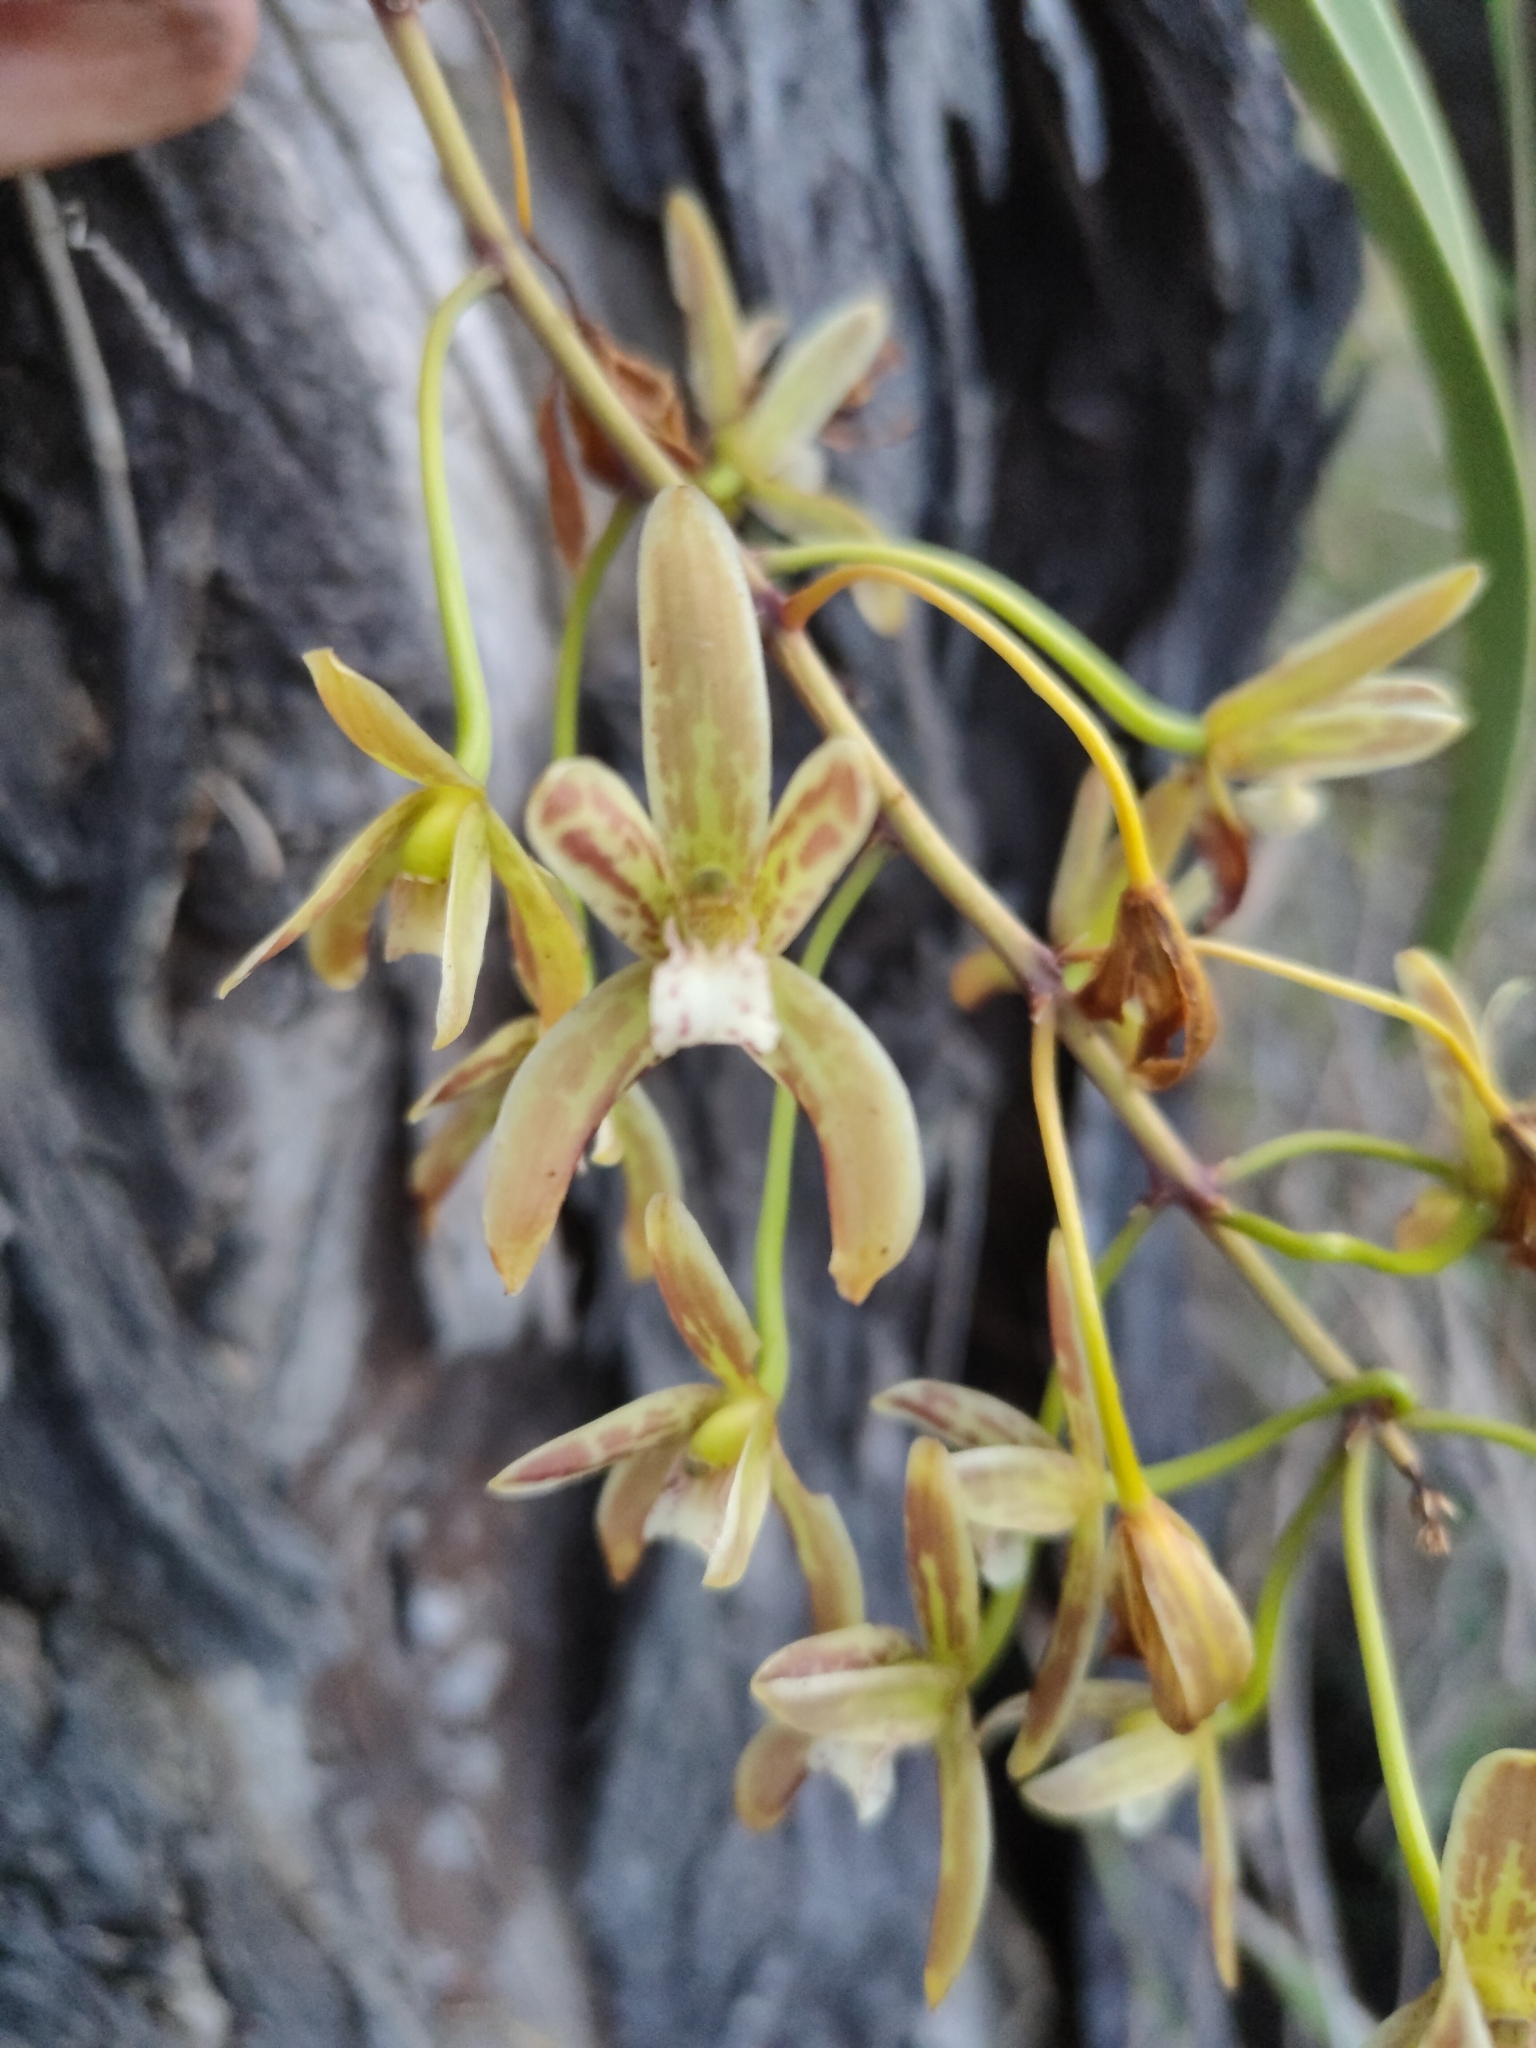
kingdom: Plantae
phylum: Tracheophyta
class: Liliopsida
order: Asparagales
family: Orchidaceae
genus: Cymbidium
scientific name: Cymbidium canaliculatum
